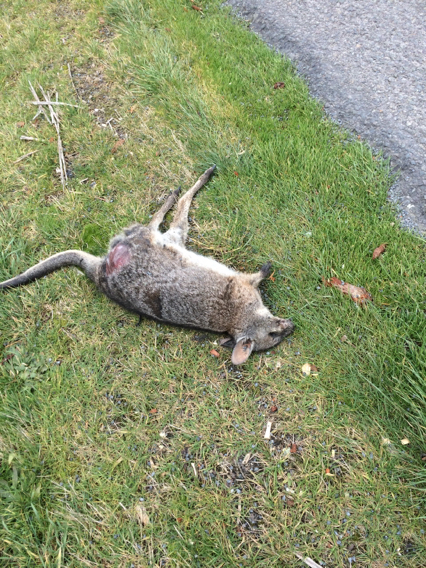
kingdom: Animalia
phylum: Chordata
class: Mammalia
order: Diprotodontia
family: Macropodidae
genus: Macropus
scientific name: Macropus eugenii
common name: Tammar wallaby
